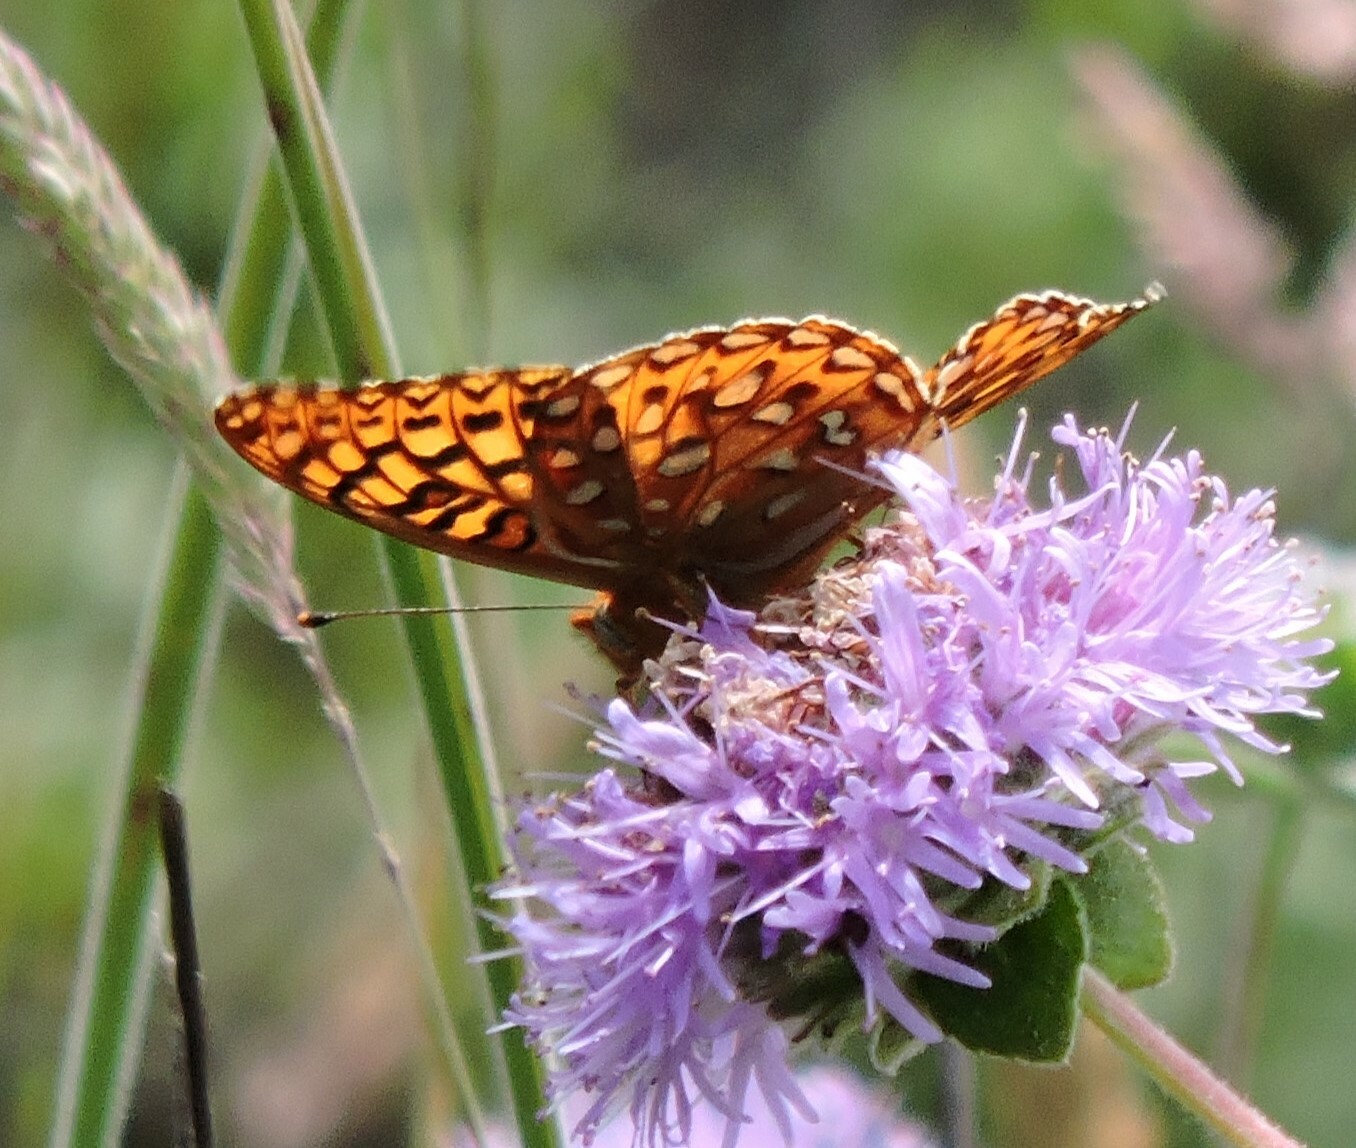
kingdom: Animalia
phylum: Arthropoda
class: Insecta
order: Lepidoptera
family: Nymphalidae
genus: Speyeria
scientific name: Speyeria zerene
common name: Zerene fritillary
